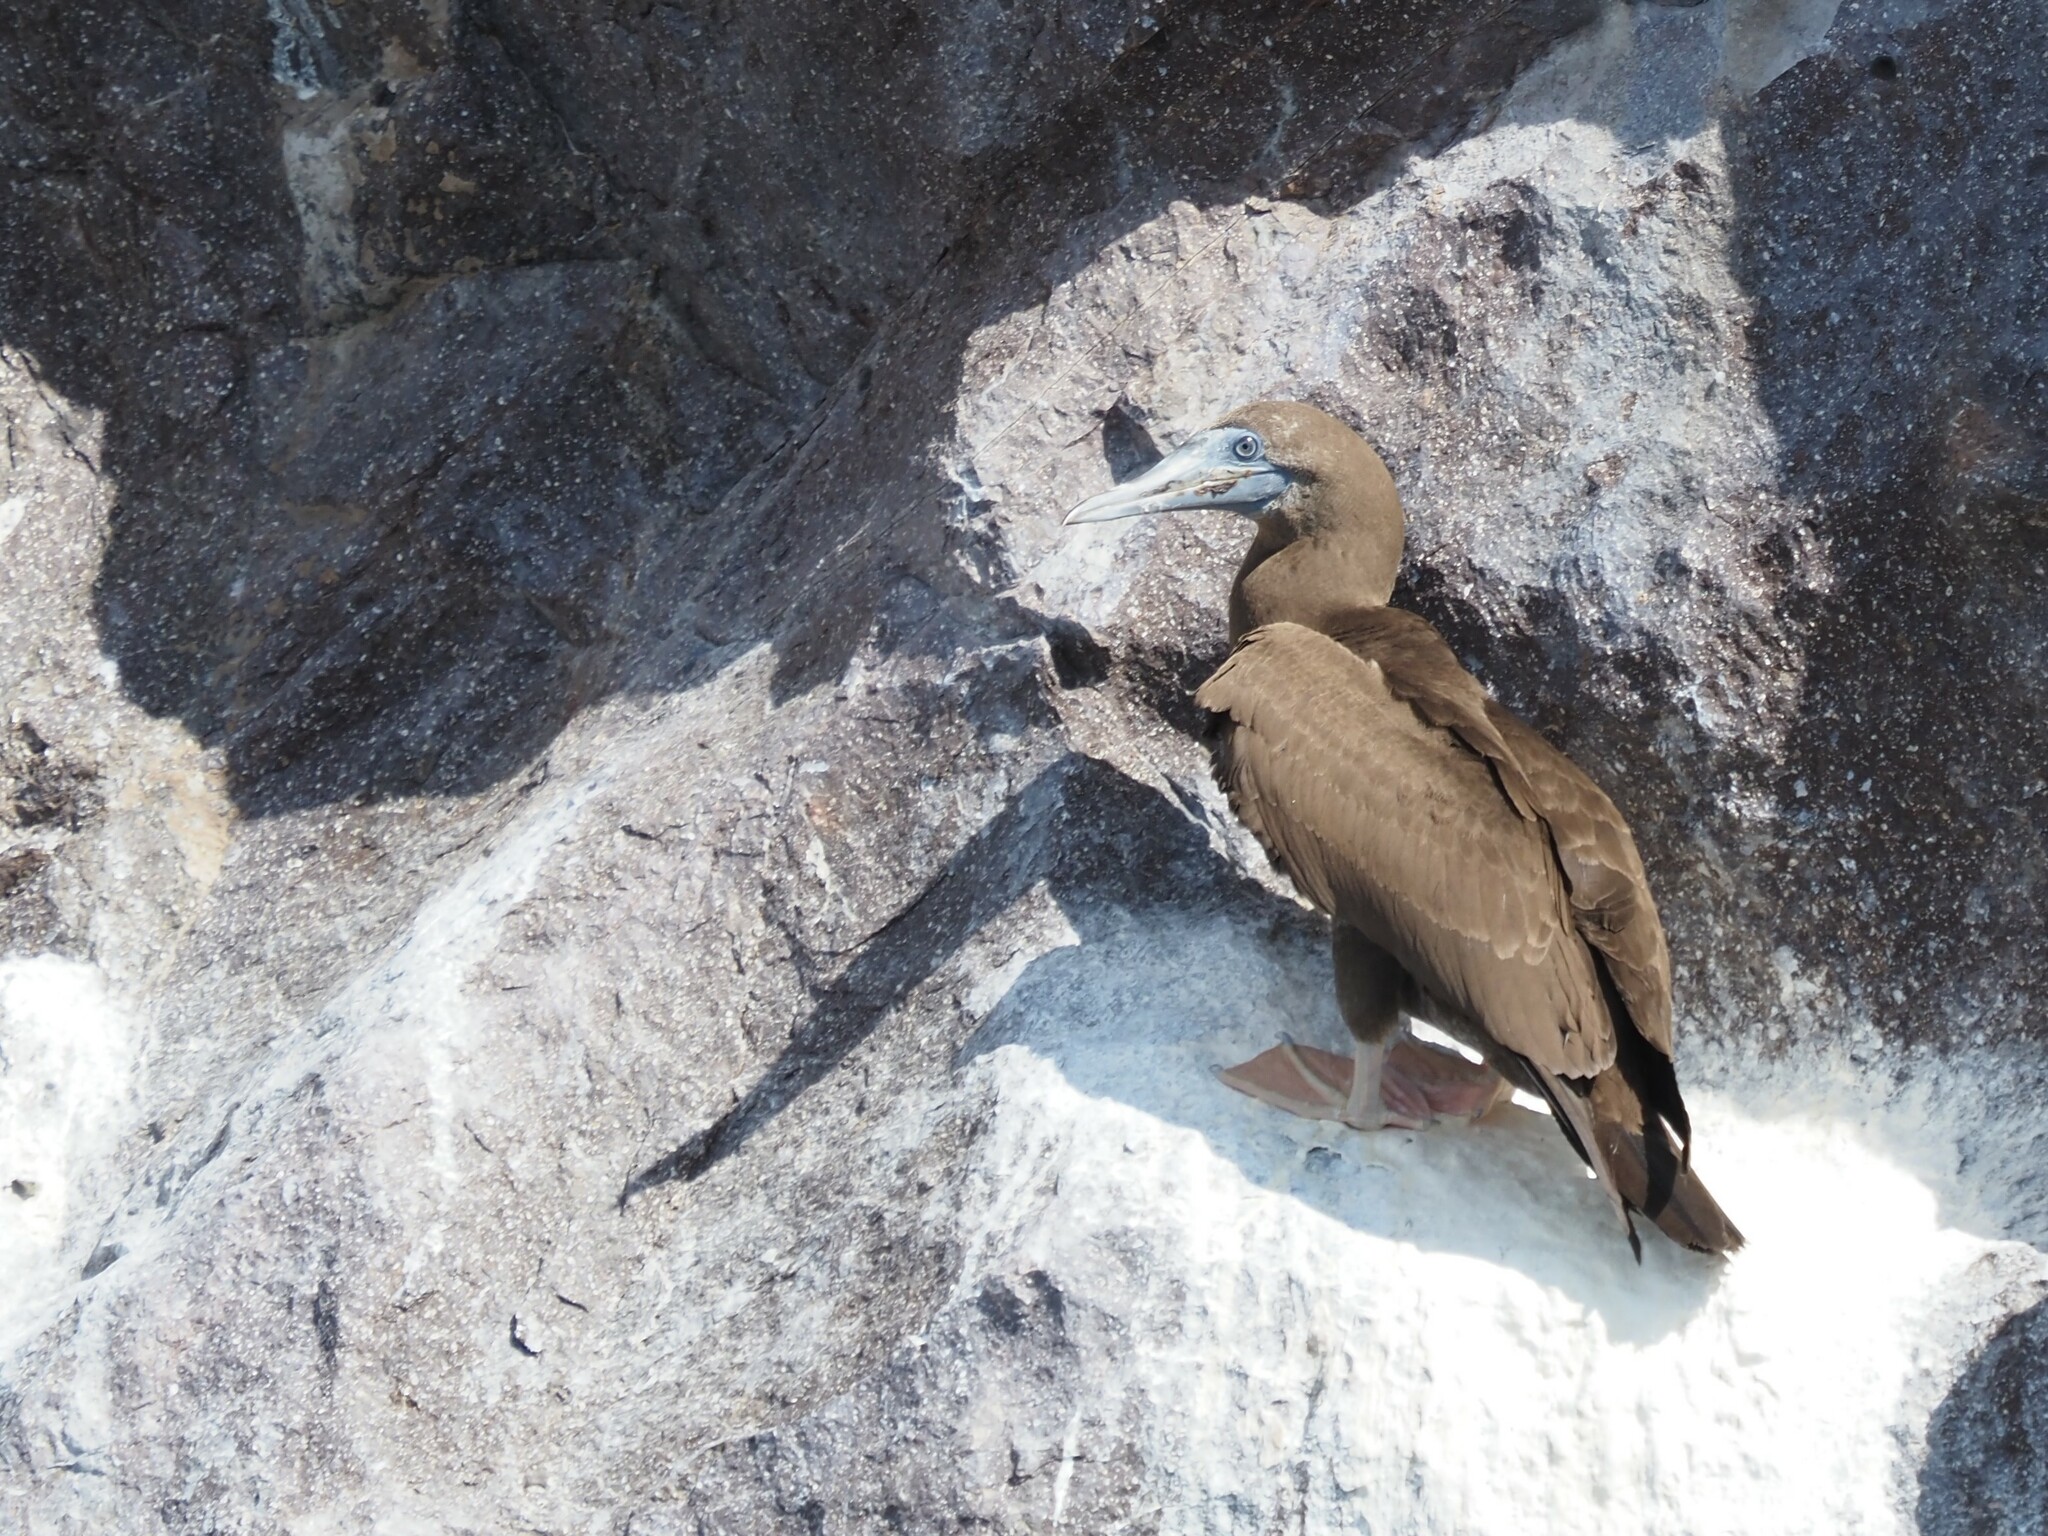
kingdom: Animalia
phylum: Chordata
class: Aves
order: Suliformes
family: Sulidae
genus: Sula
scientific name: Sula leucogaster
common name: Brown booby
